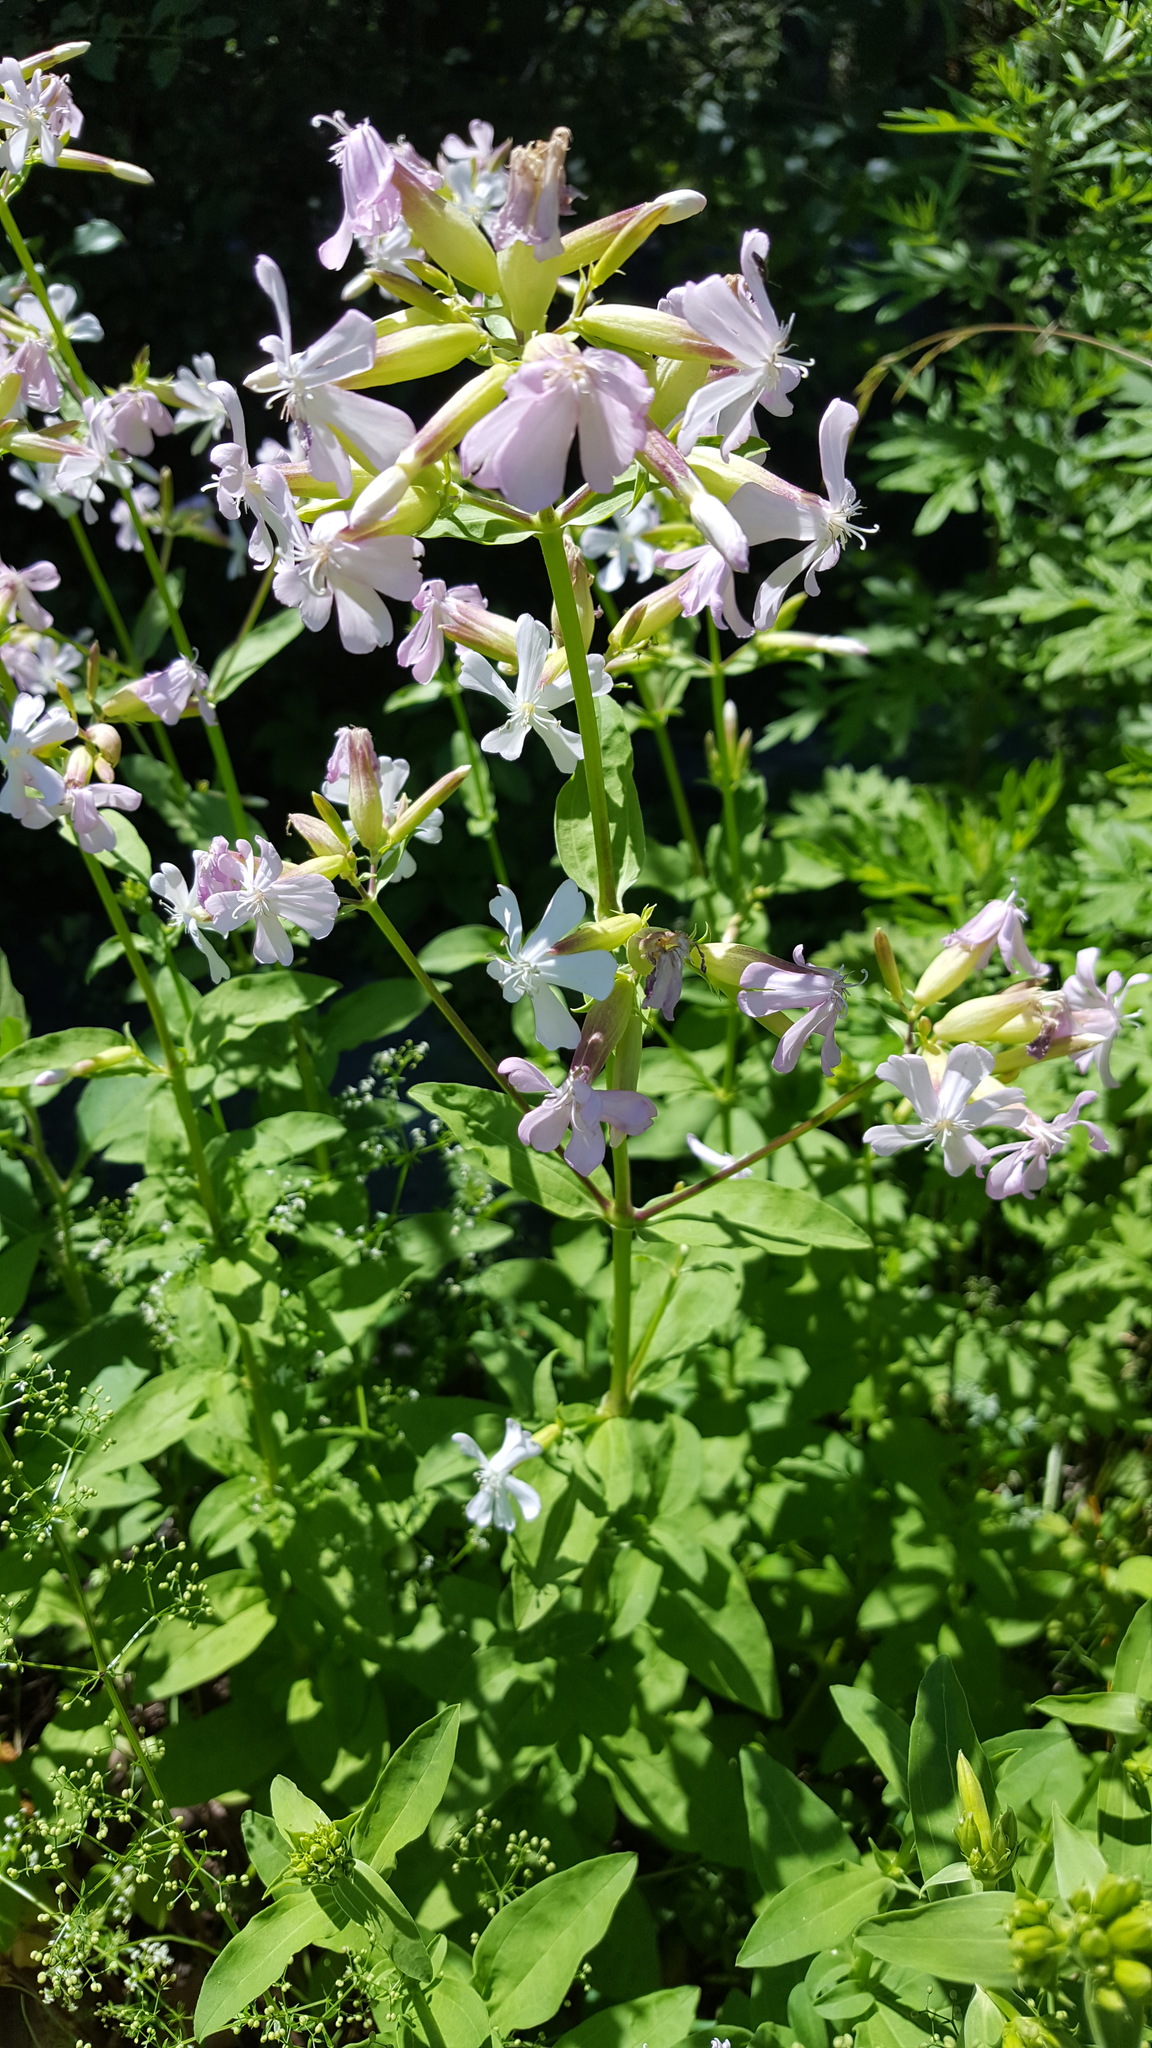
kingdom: Plantae
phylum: Tracheophyta
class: Magnoliopsida
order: Caryophyllales
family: Caryophyllaceae
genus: Saponaria
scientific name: Saponaria officinalis
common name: Soapwort
